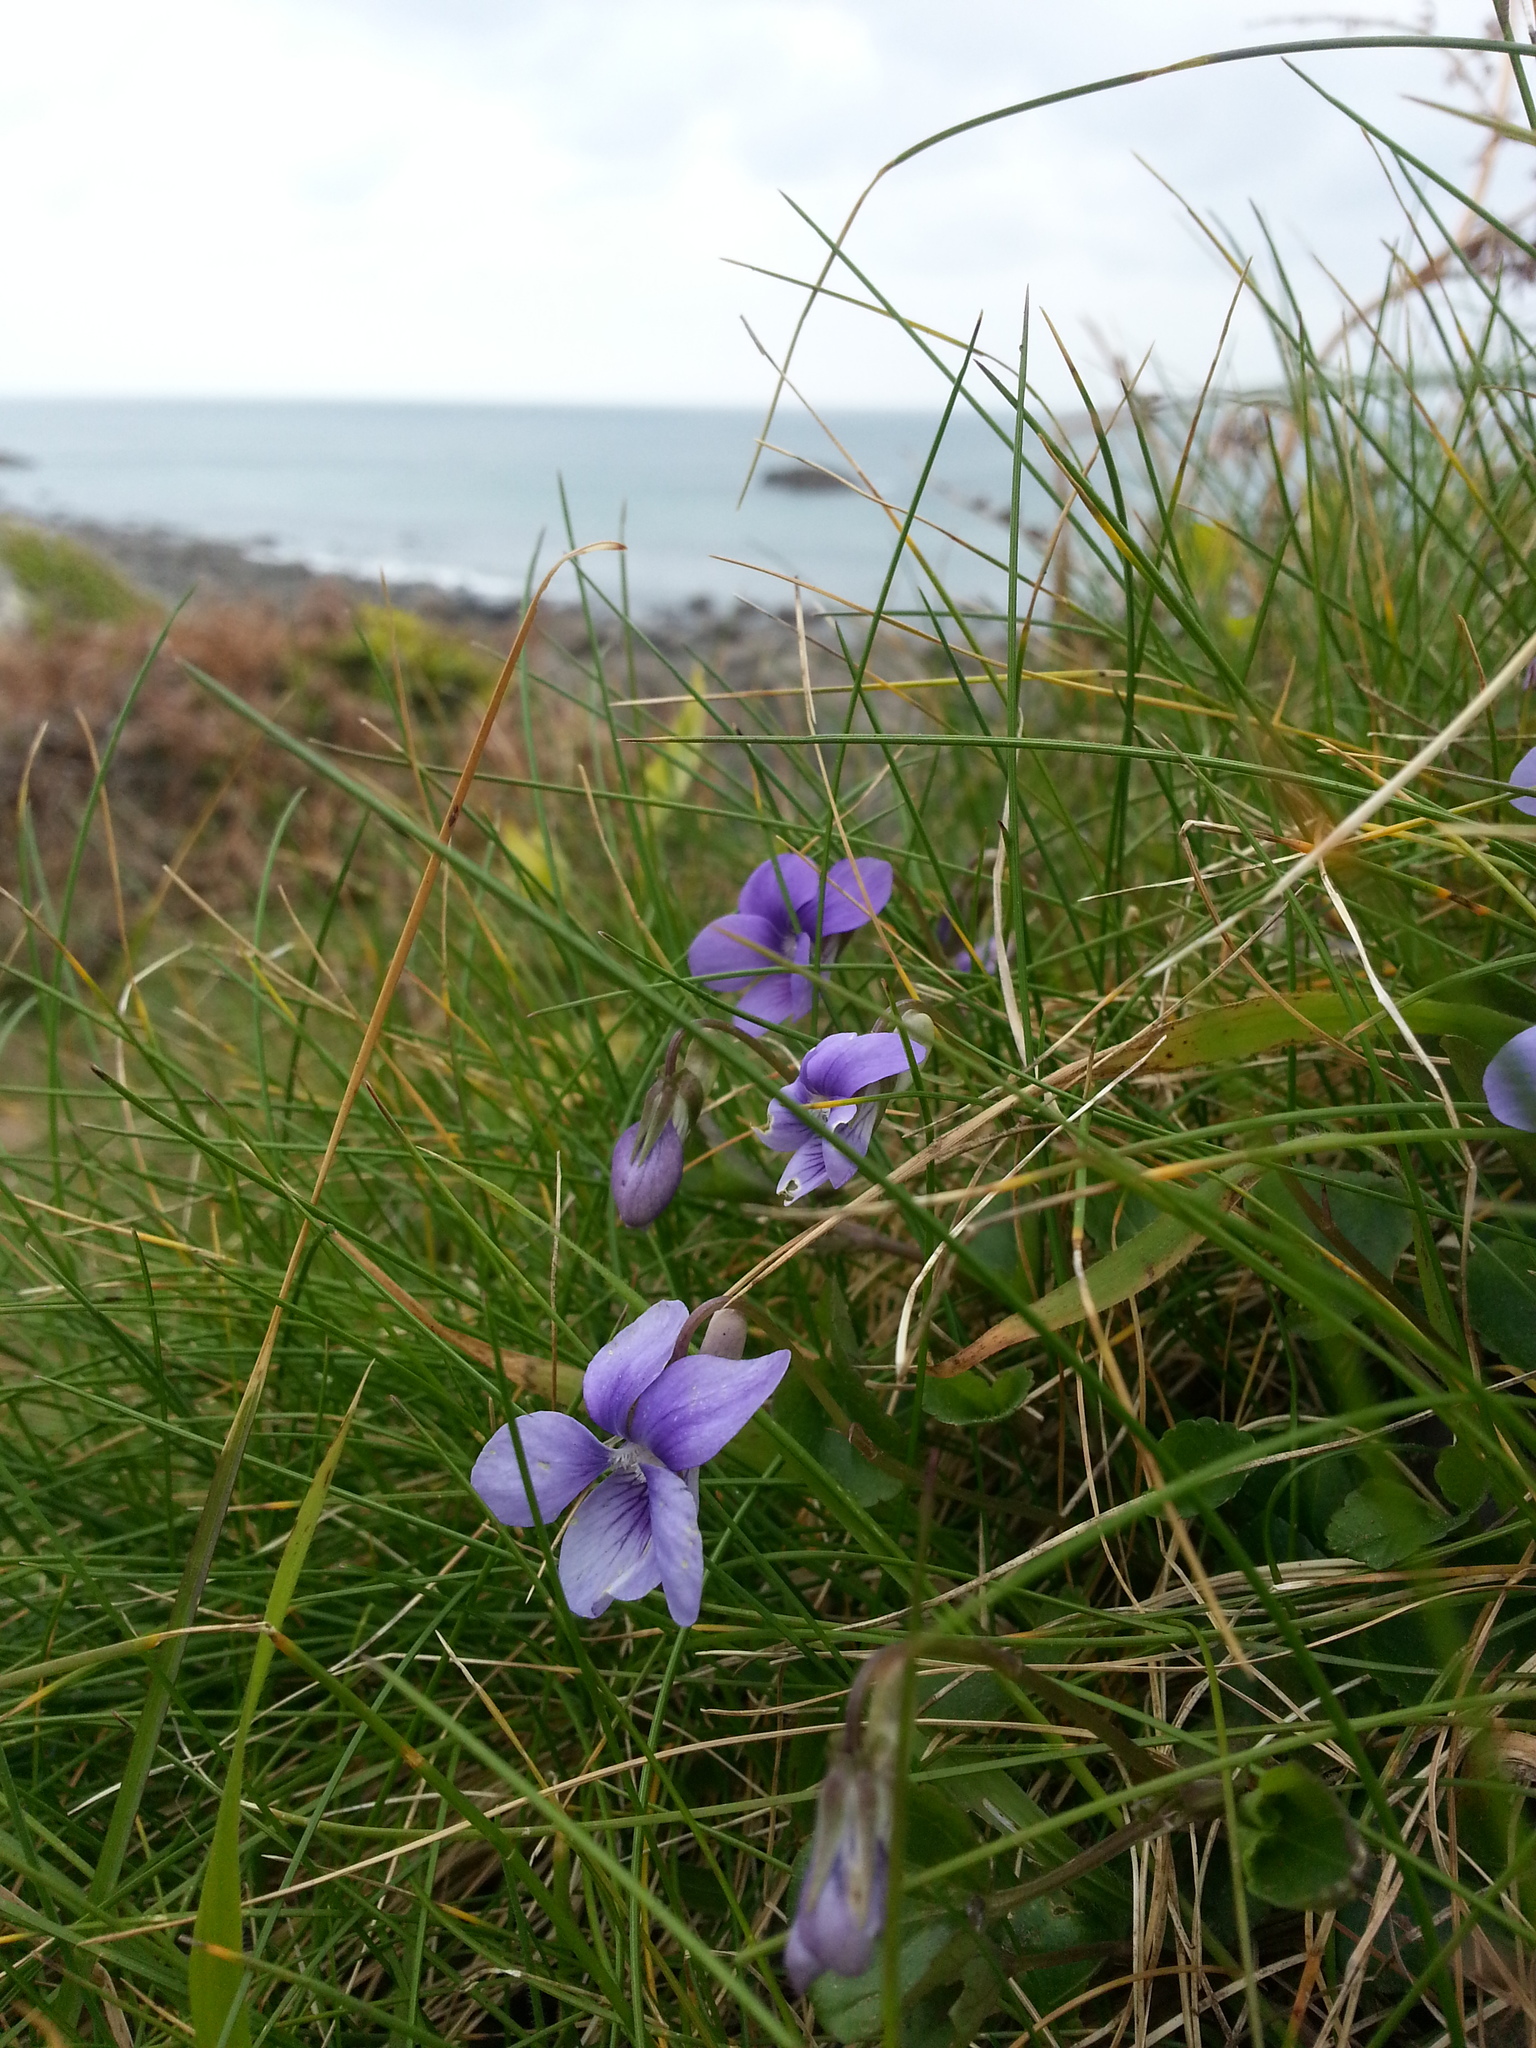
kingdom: Plantae
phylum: Tracheophyta
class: Magnoliopsida
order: Malpighiales
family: Violaceae
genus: Viola
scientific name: Viola riviniana
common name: Common dog-violet
